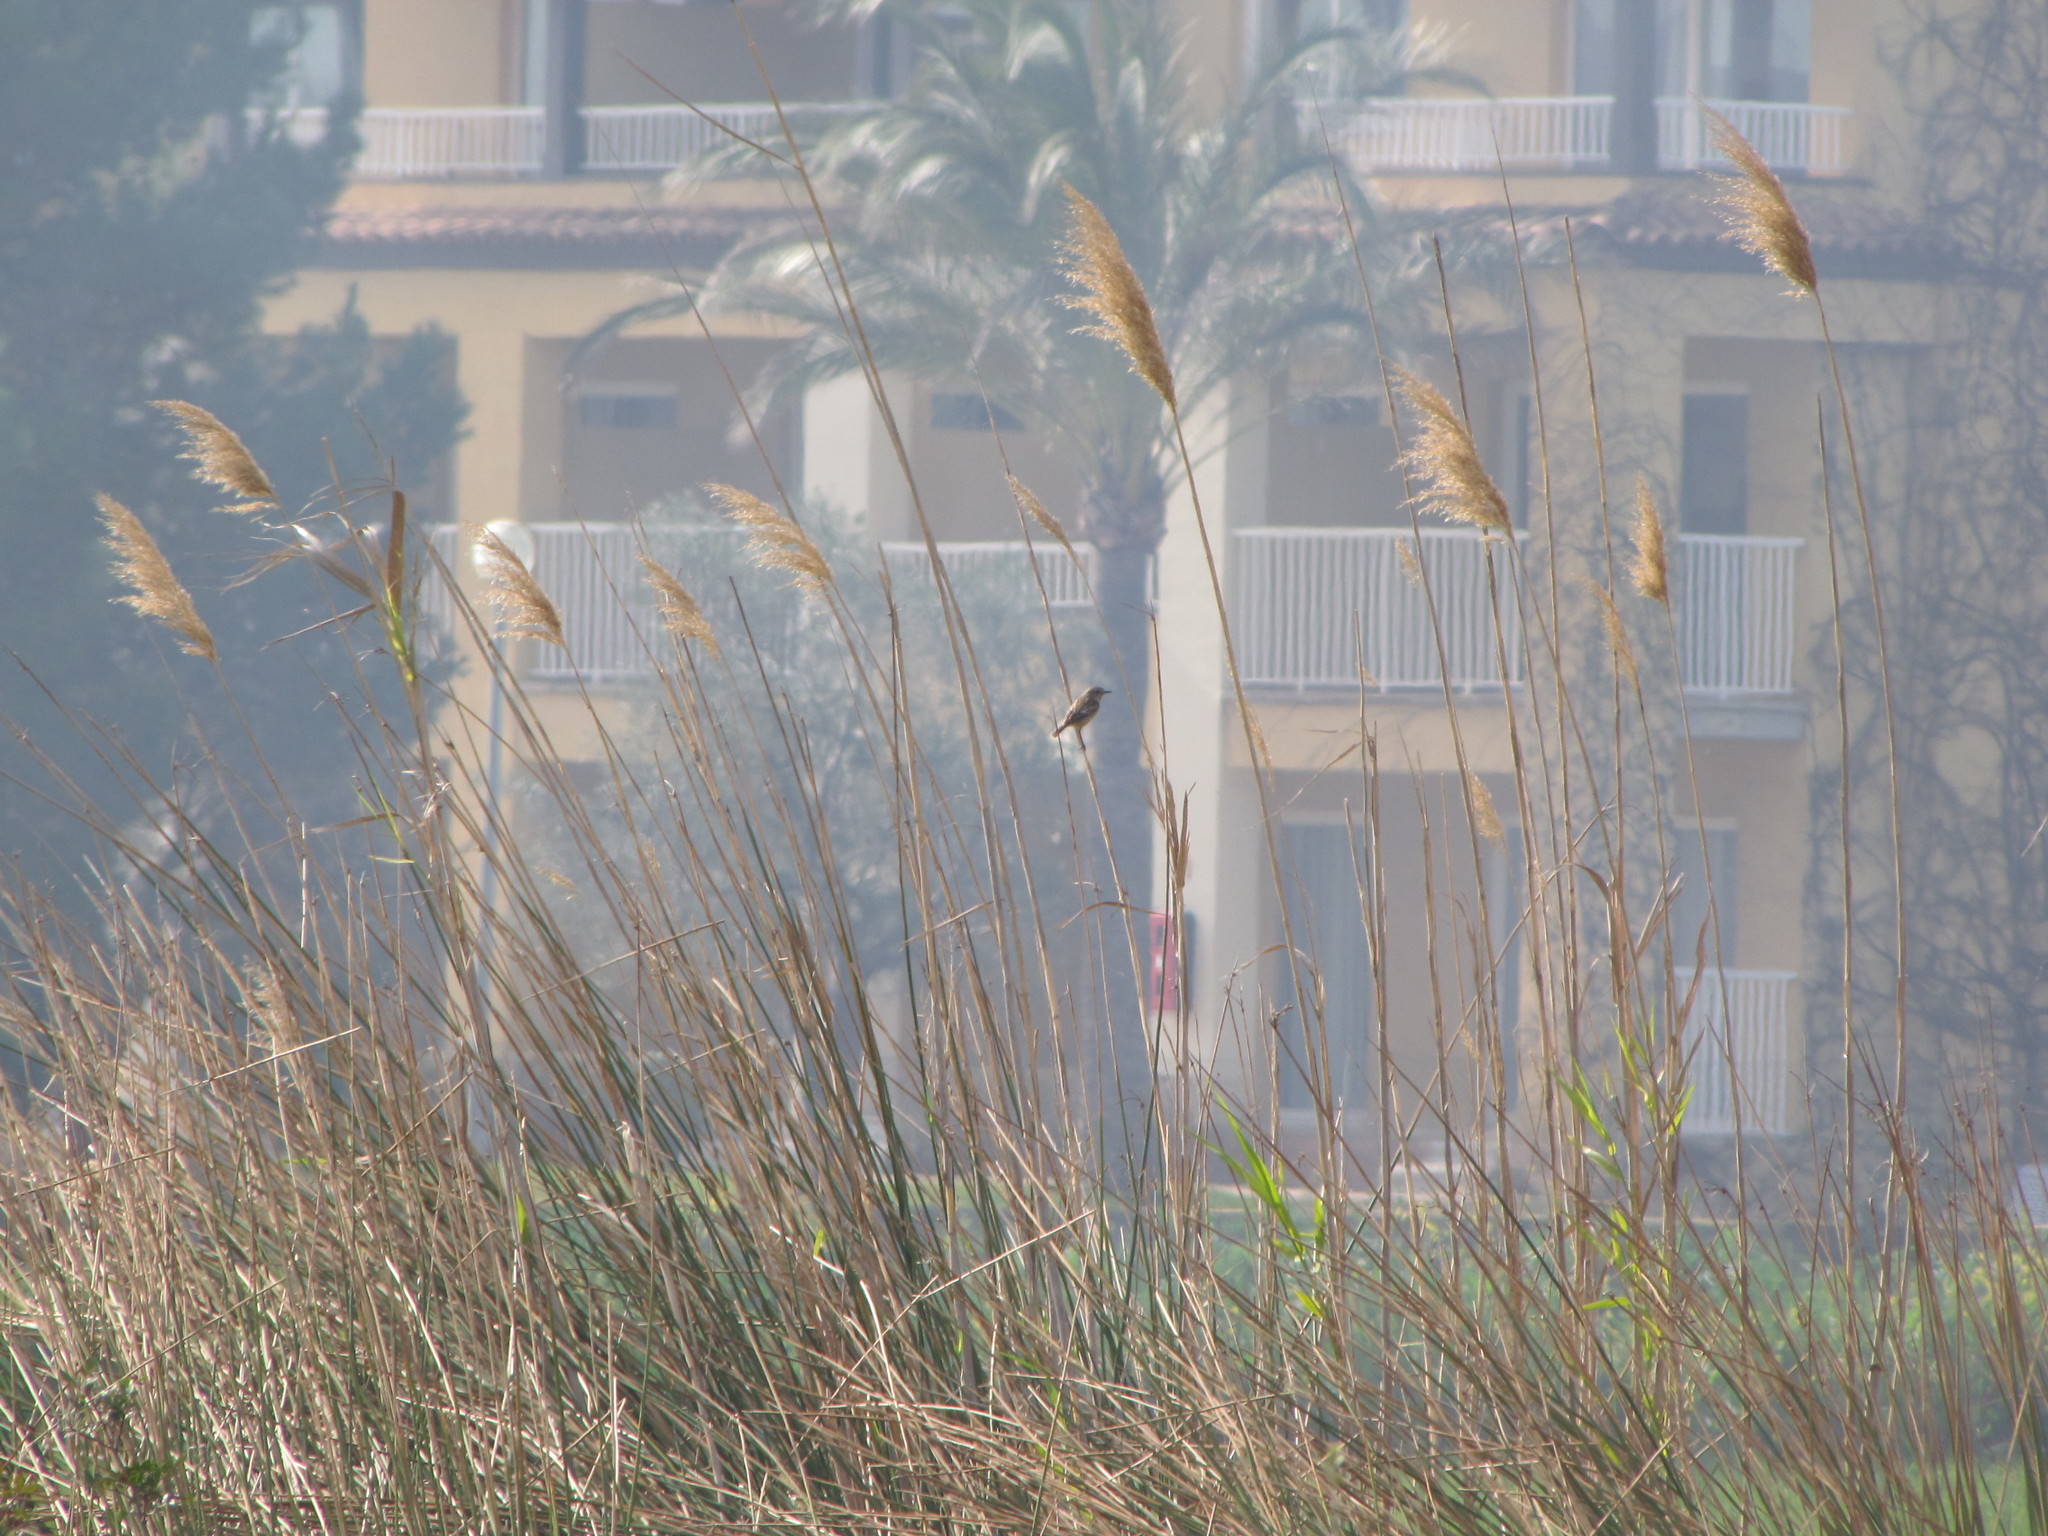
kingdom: Animalia
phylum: Chordata
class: Aves
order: Passeriformes
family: Muscicapidae
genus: Saxicola
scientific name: Saxicola rubicola
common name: European stonechat
